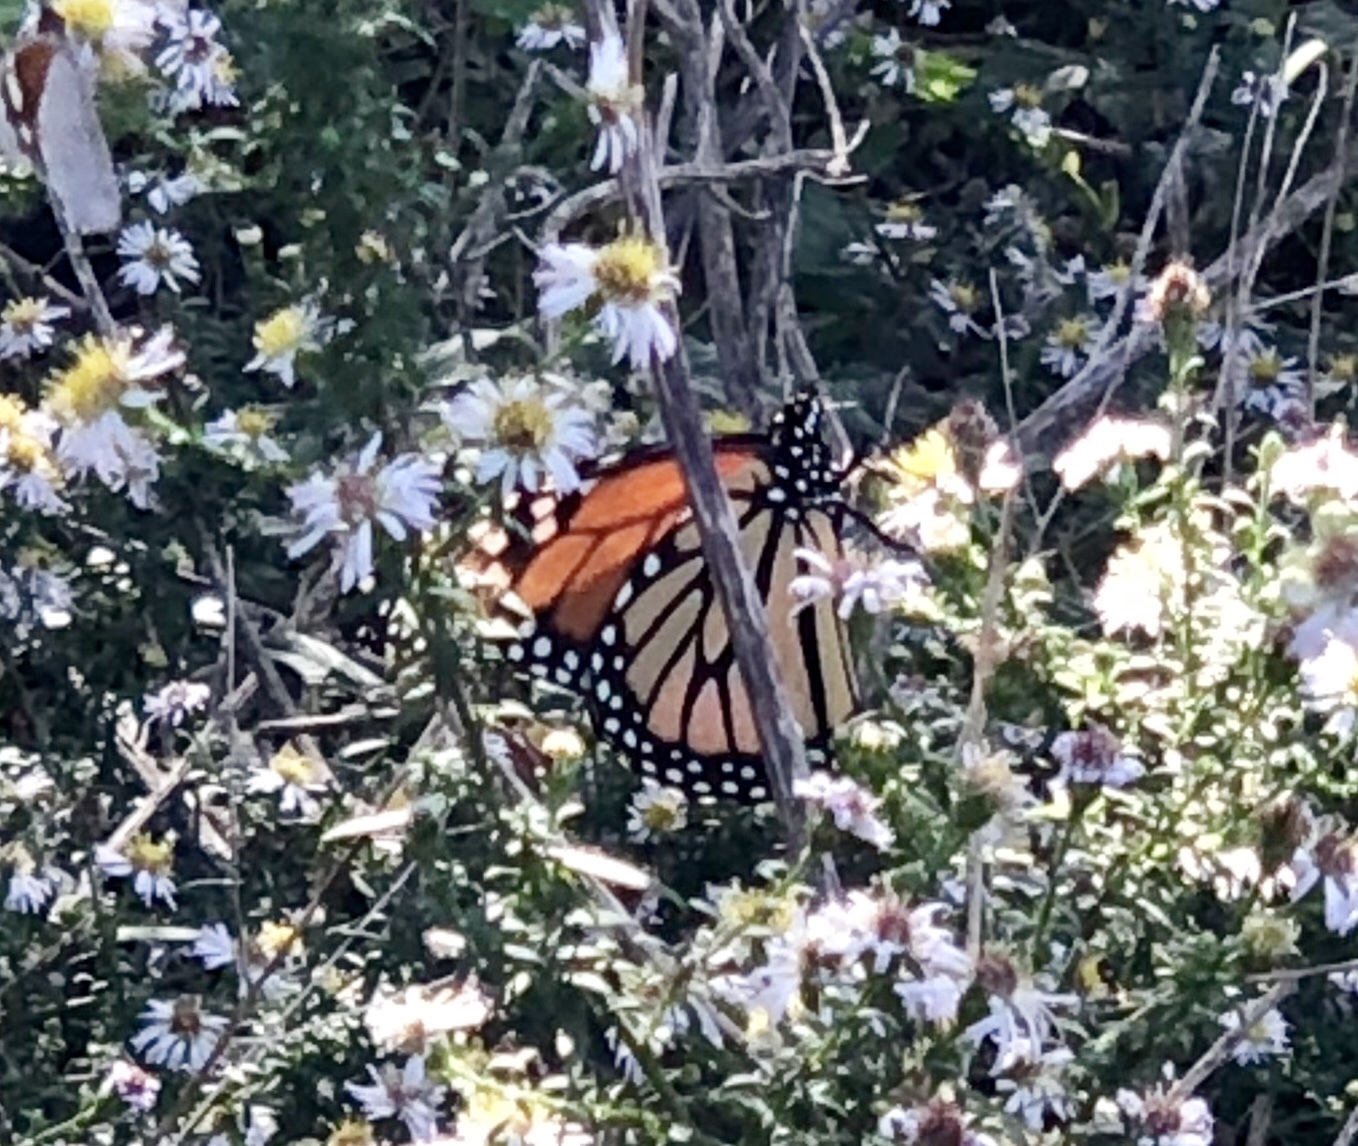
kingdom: Animalia
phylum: Arthropoda
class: Insecta
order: Lepidoptera
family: Nymphalidae
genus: Danaus
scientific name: Danaus plexippus
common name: Monarch
